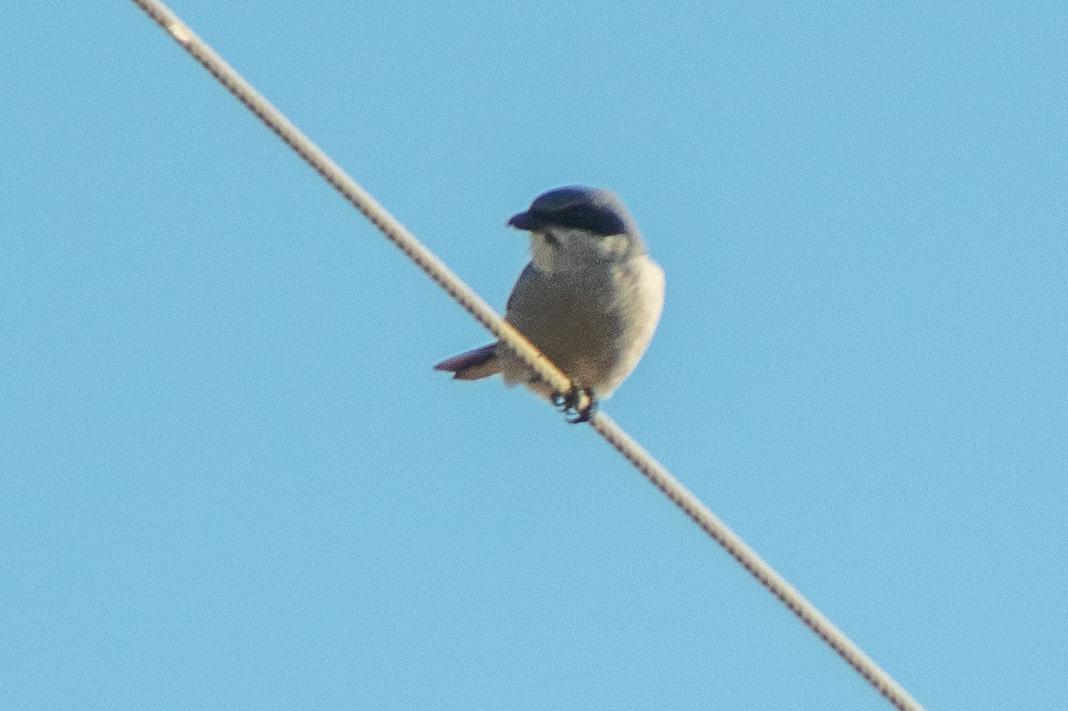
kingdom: Animalia
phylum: Chordata
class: Aves
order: Passeriformes
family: Laniidae
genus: Lanius
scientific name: Lanius ludovicianus
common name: Loggerhead shrike
